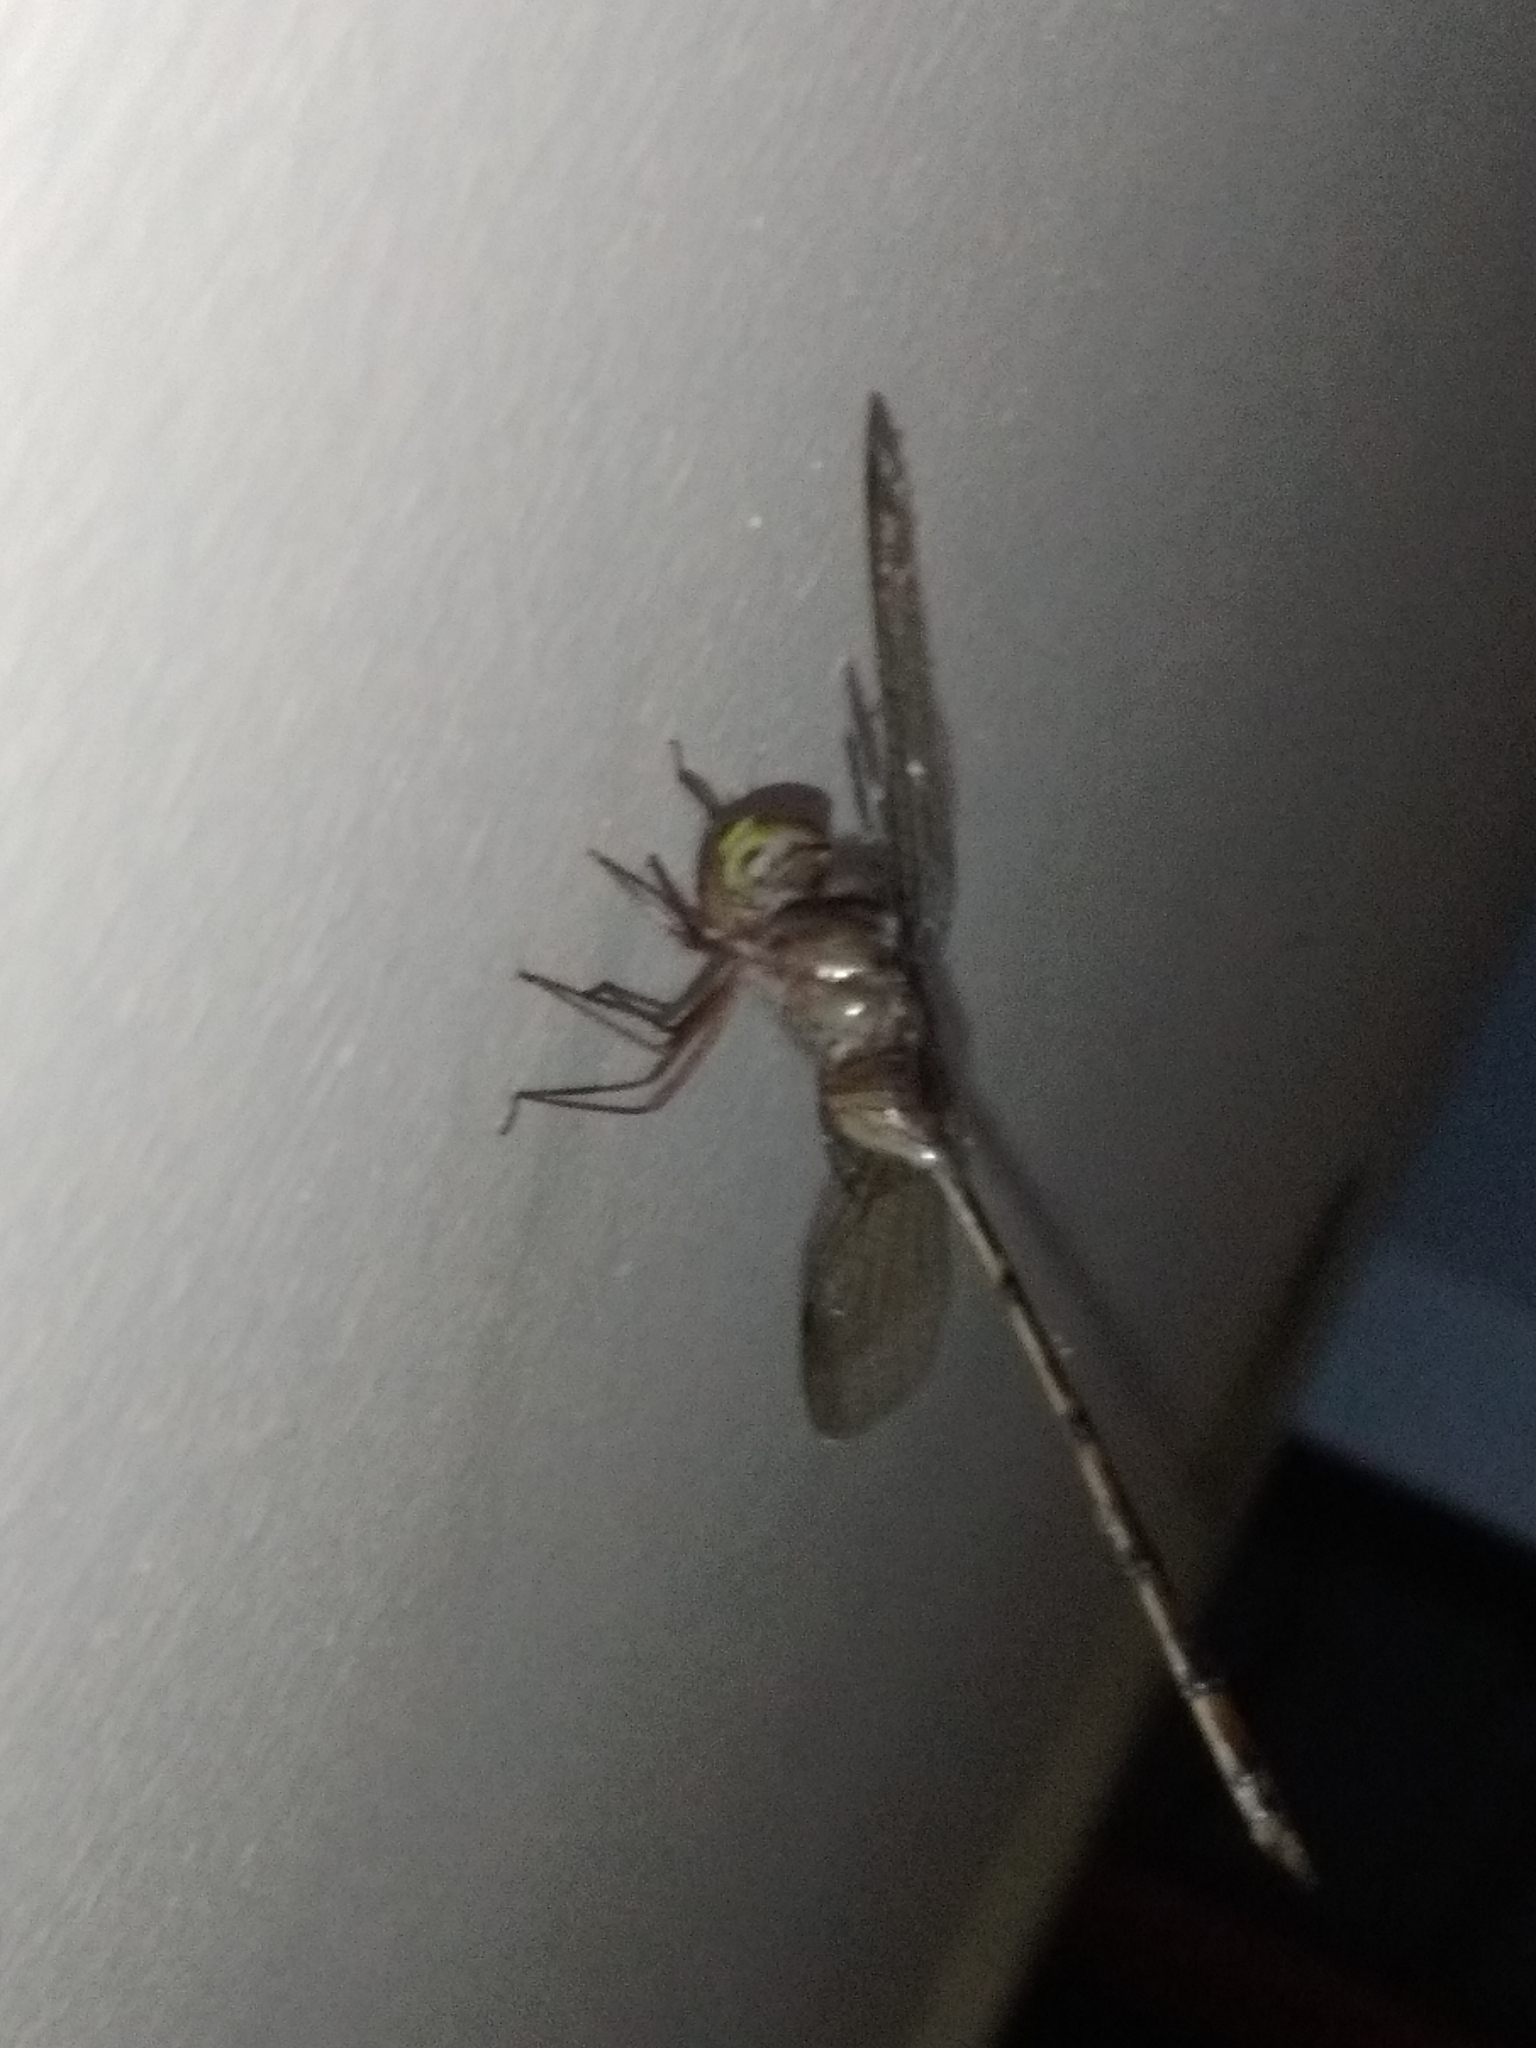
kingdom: Animalia
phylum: Arthropoda
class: Insecta
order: Odonata
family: Libellulidae
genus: Zyxomma
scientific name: Zyxomma petiolatum
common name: Dingy dusk-darter
